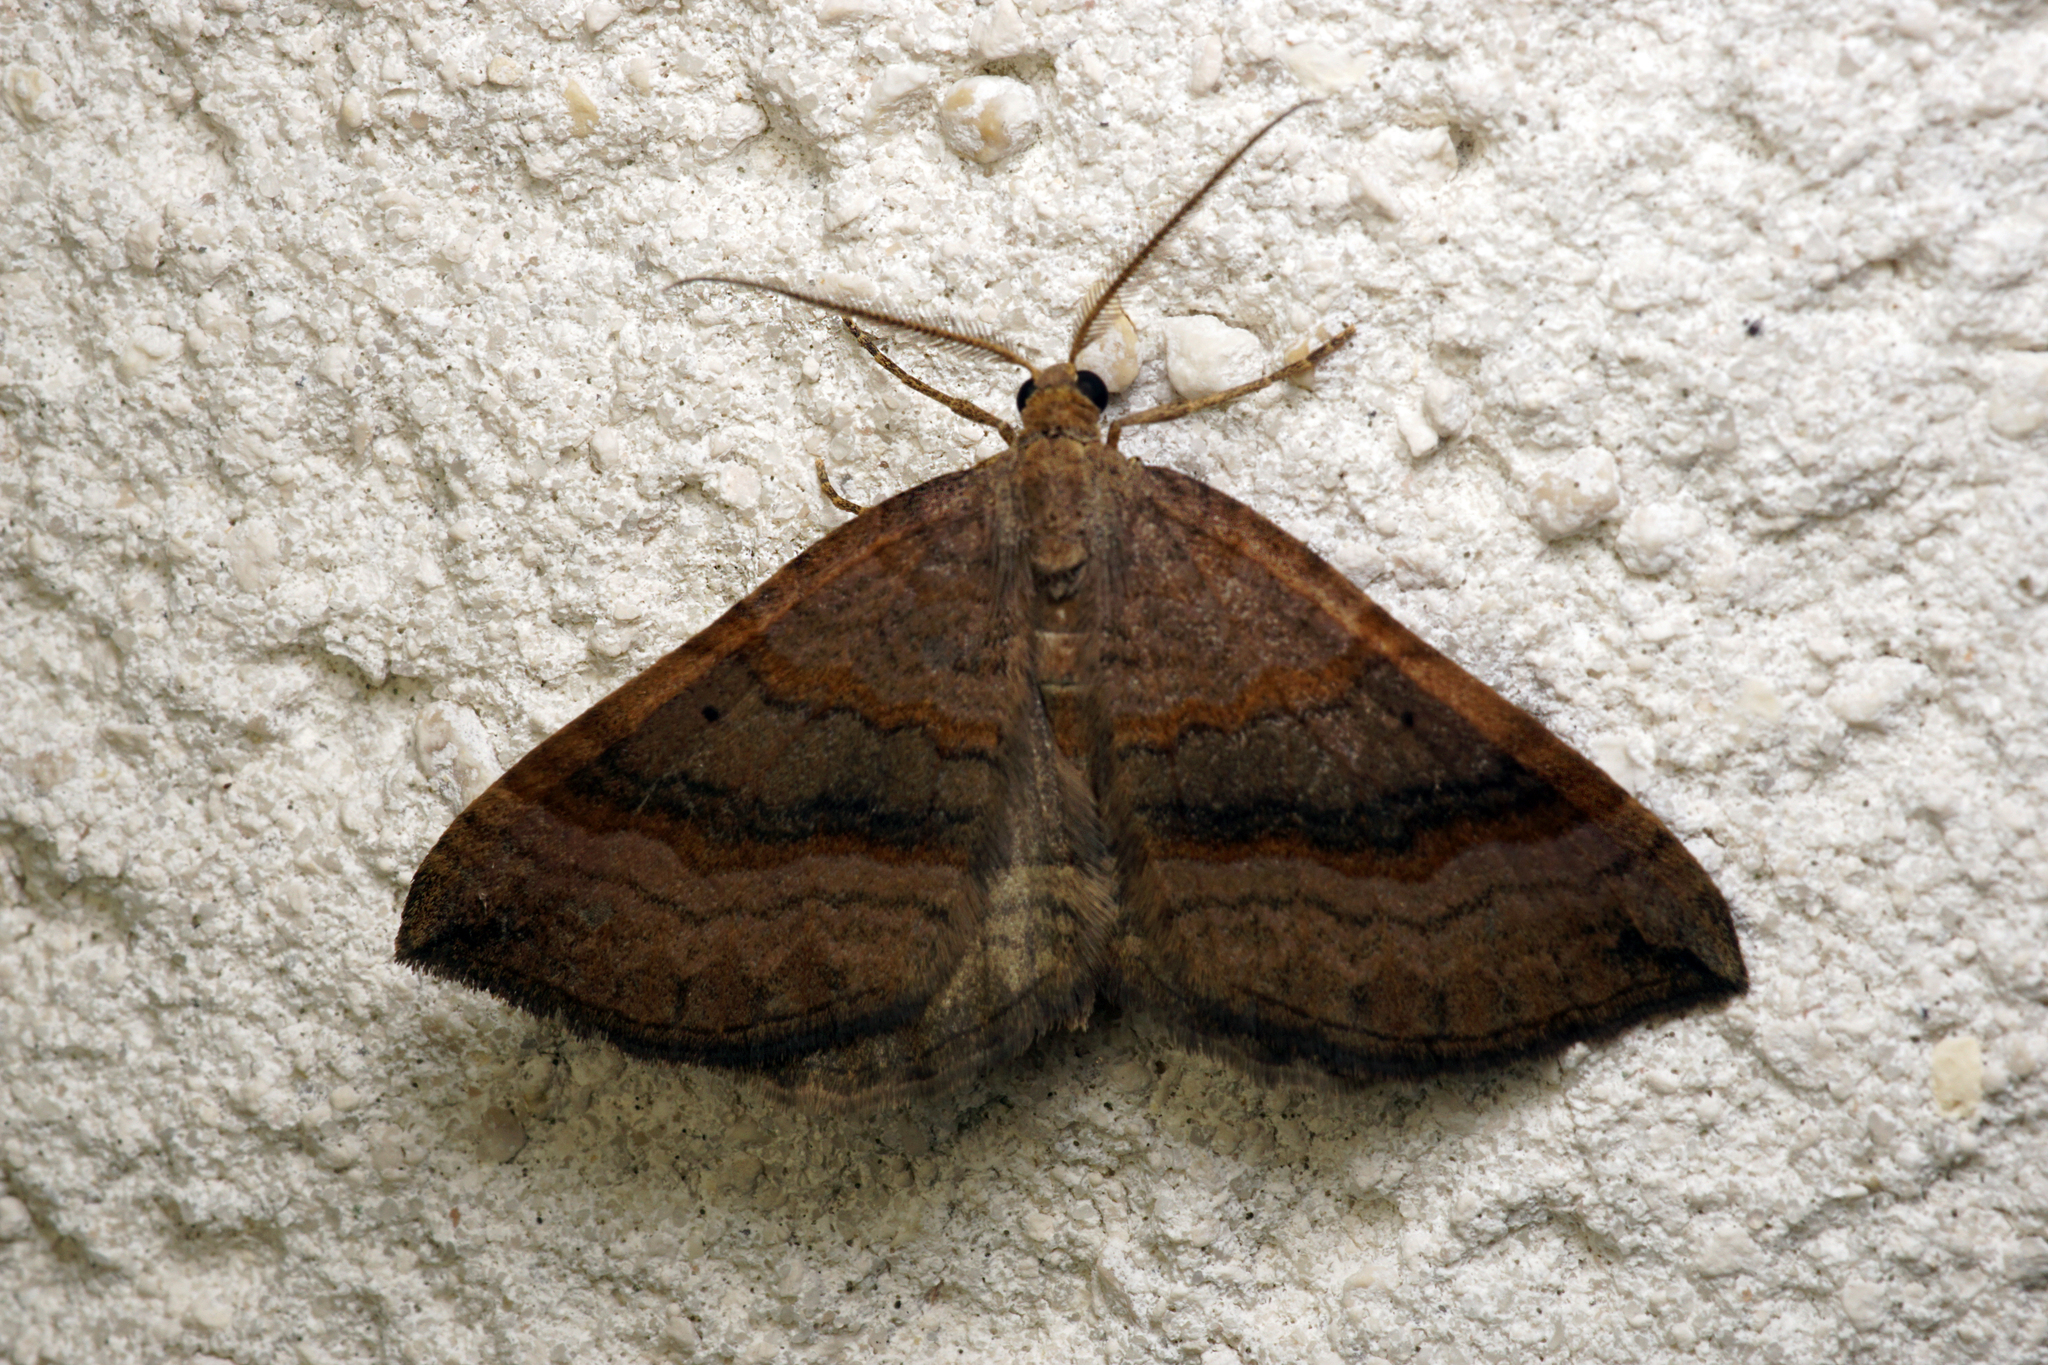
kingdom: Animalia
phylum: Arthropoda
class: Insecta
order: Lepidoptera
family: Geometridae
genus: Scotopteryx
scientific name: Scotopteryx chenopodiata
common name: Shaded broad-bar
